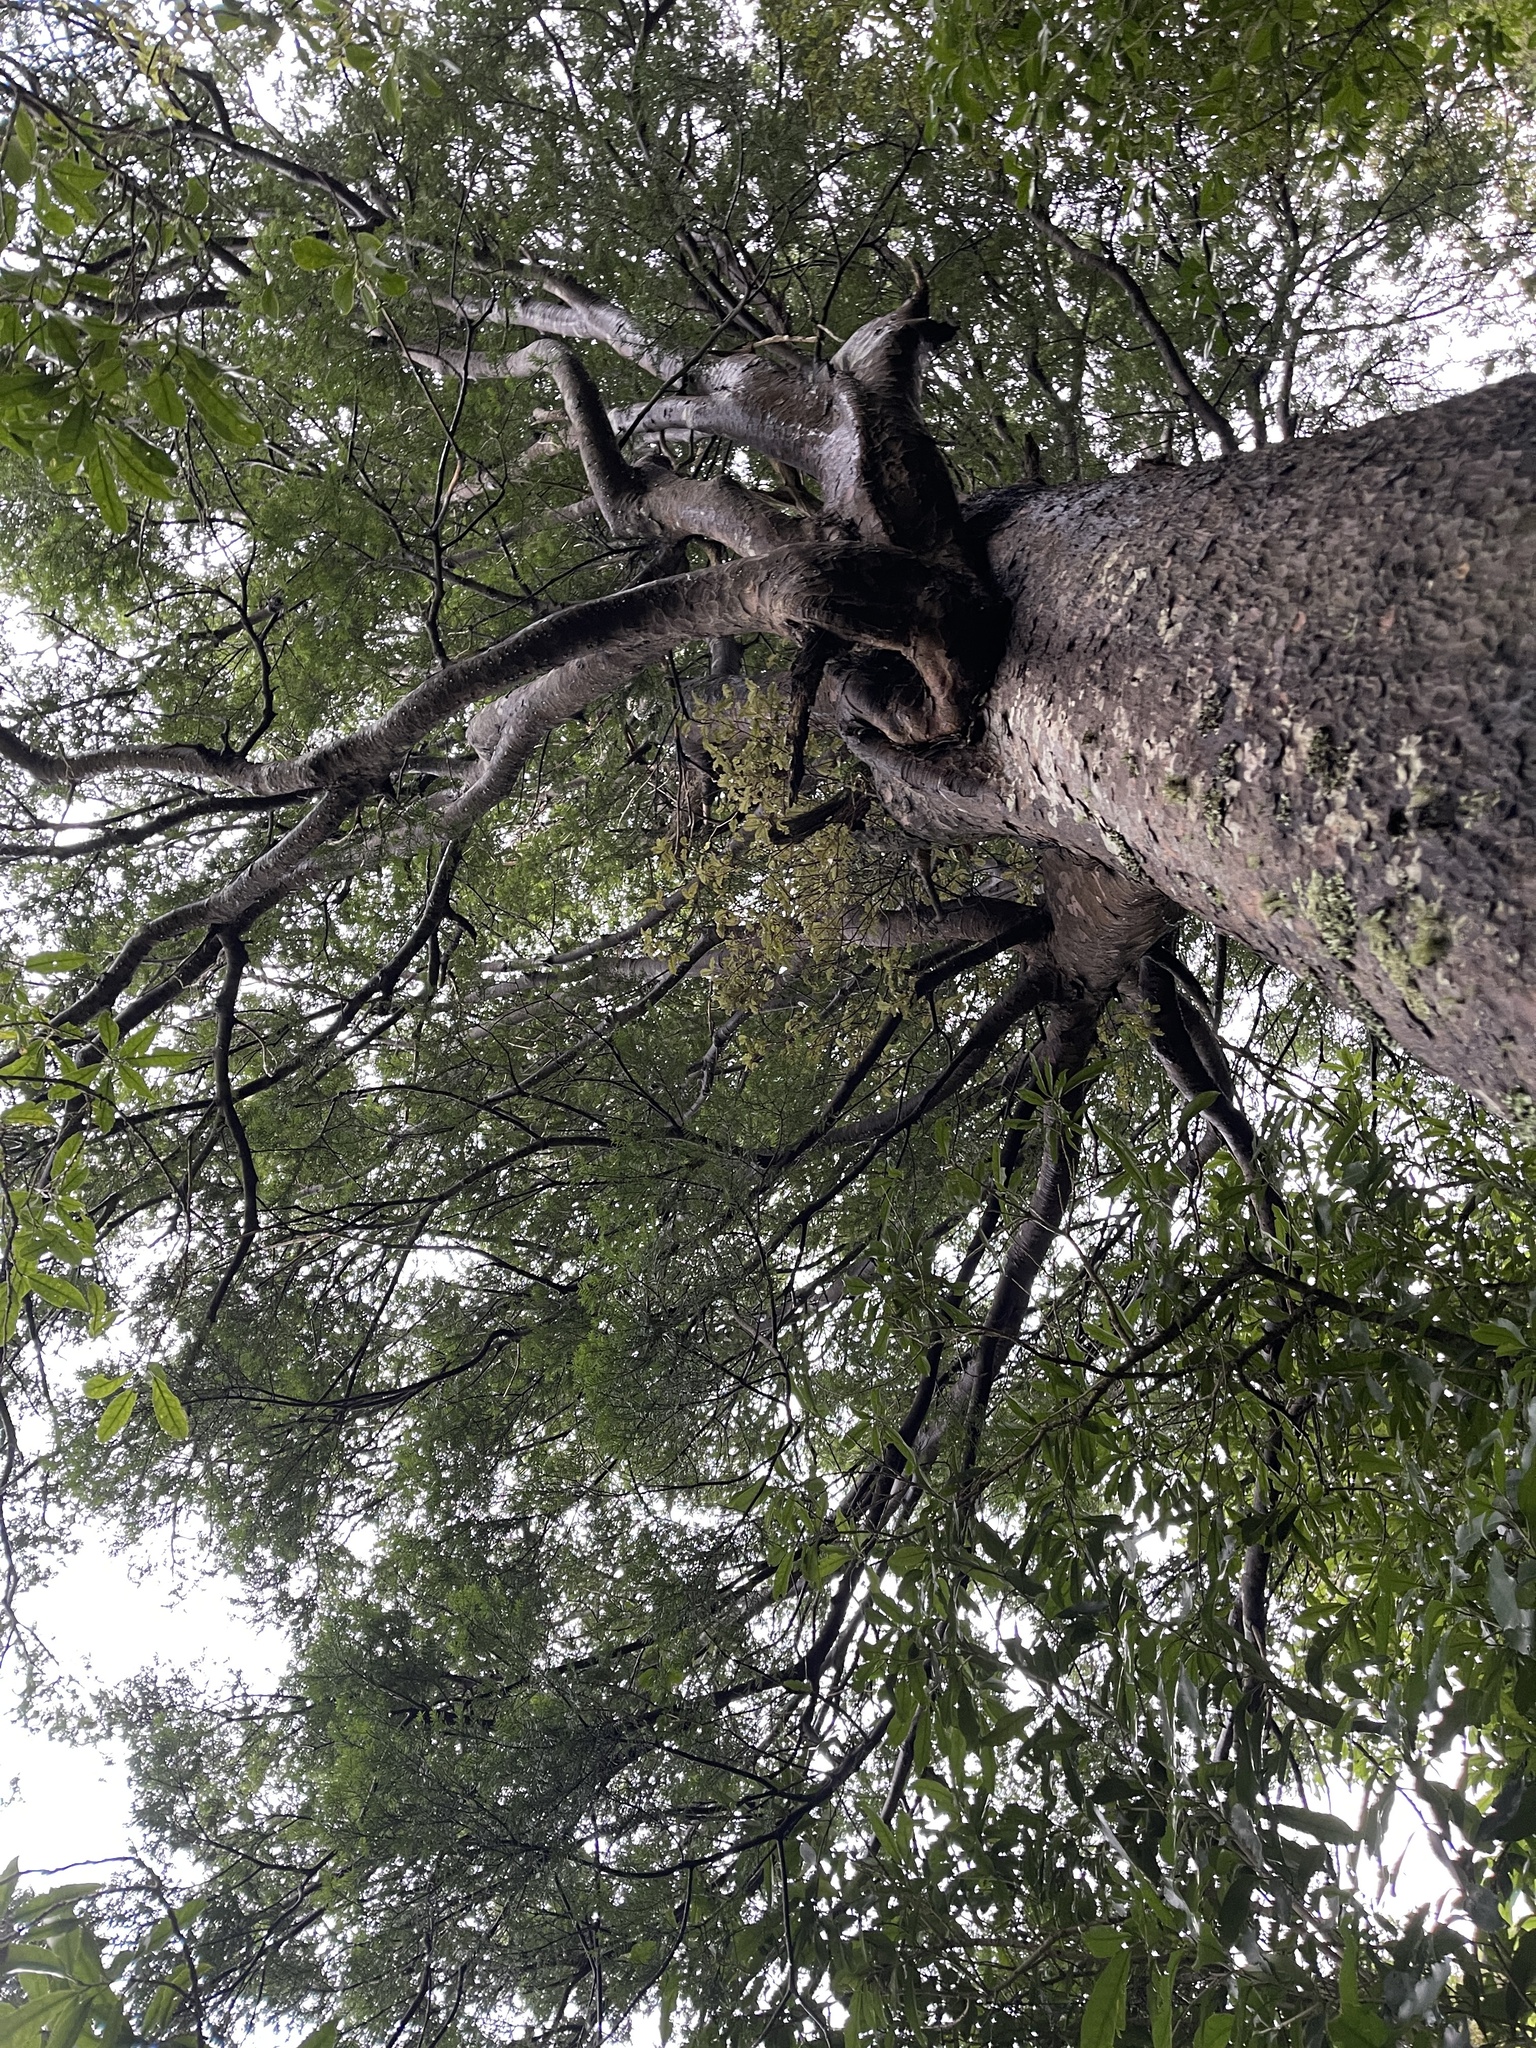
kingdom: Plantae
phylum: Tracheophyta
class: Pinopsida
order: Pinales
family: Podocarpaceae
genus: Prumnopitys
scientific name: Prumnopitys taxifolia
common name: Matai
